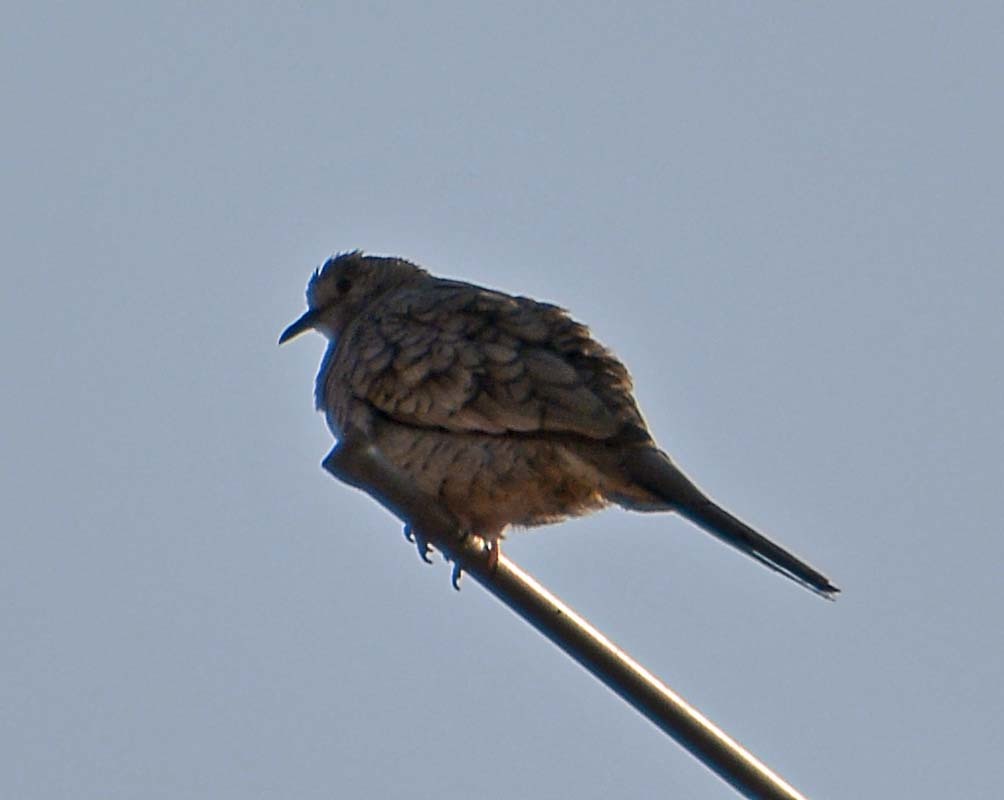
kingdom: Animalia
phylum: Chordata
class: Aves
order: Columbiformes
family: Columbidae
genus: Columbina
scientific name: Columbina inca
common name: Inca dove
